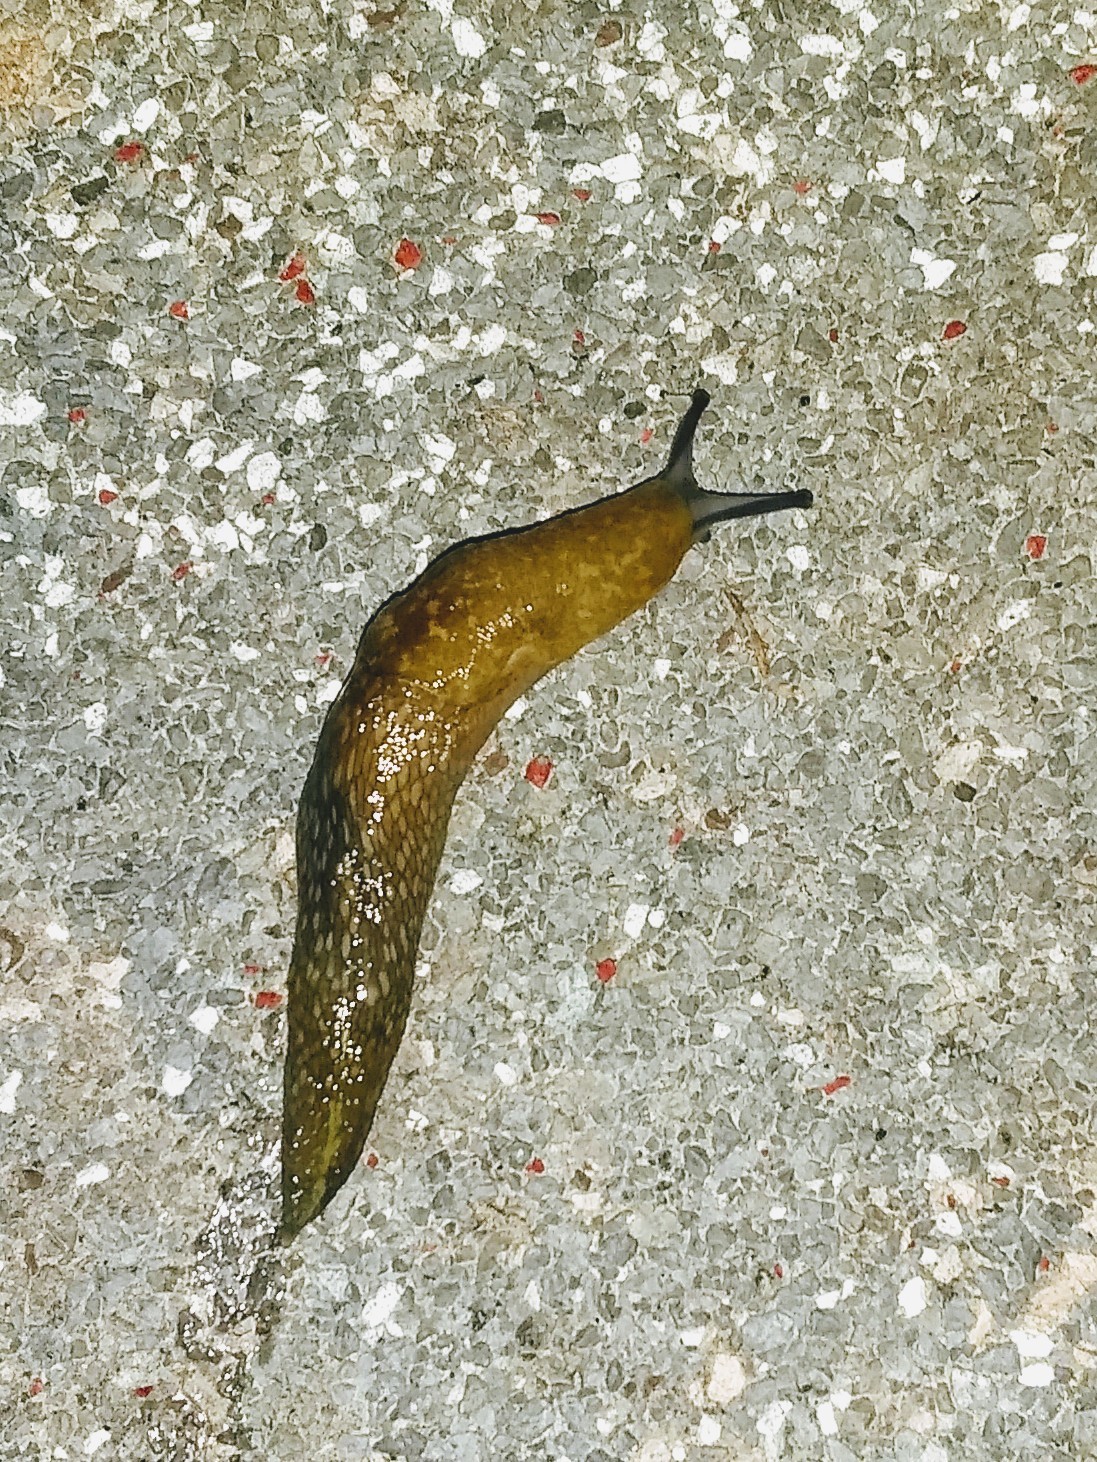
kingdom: Animalia
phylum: Mollusca
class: Gastropoda
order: Stylommatophora
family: Limacidae
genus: Limacus
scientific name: Limacus flavus
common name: Yellow gardenslug
